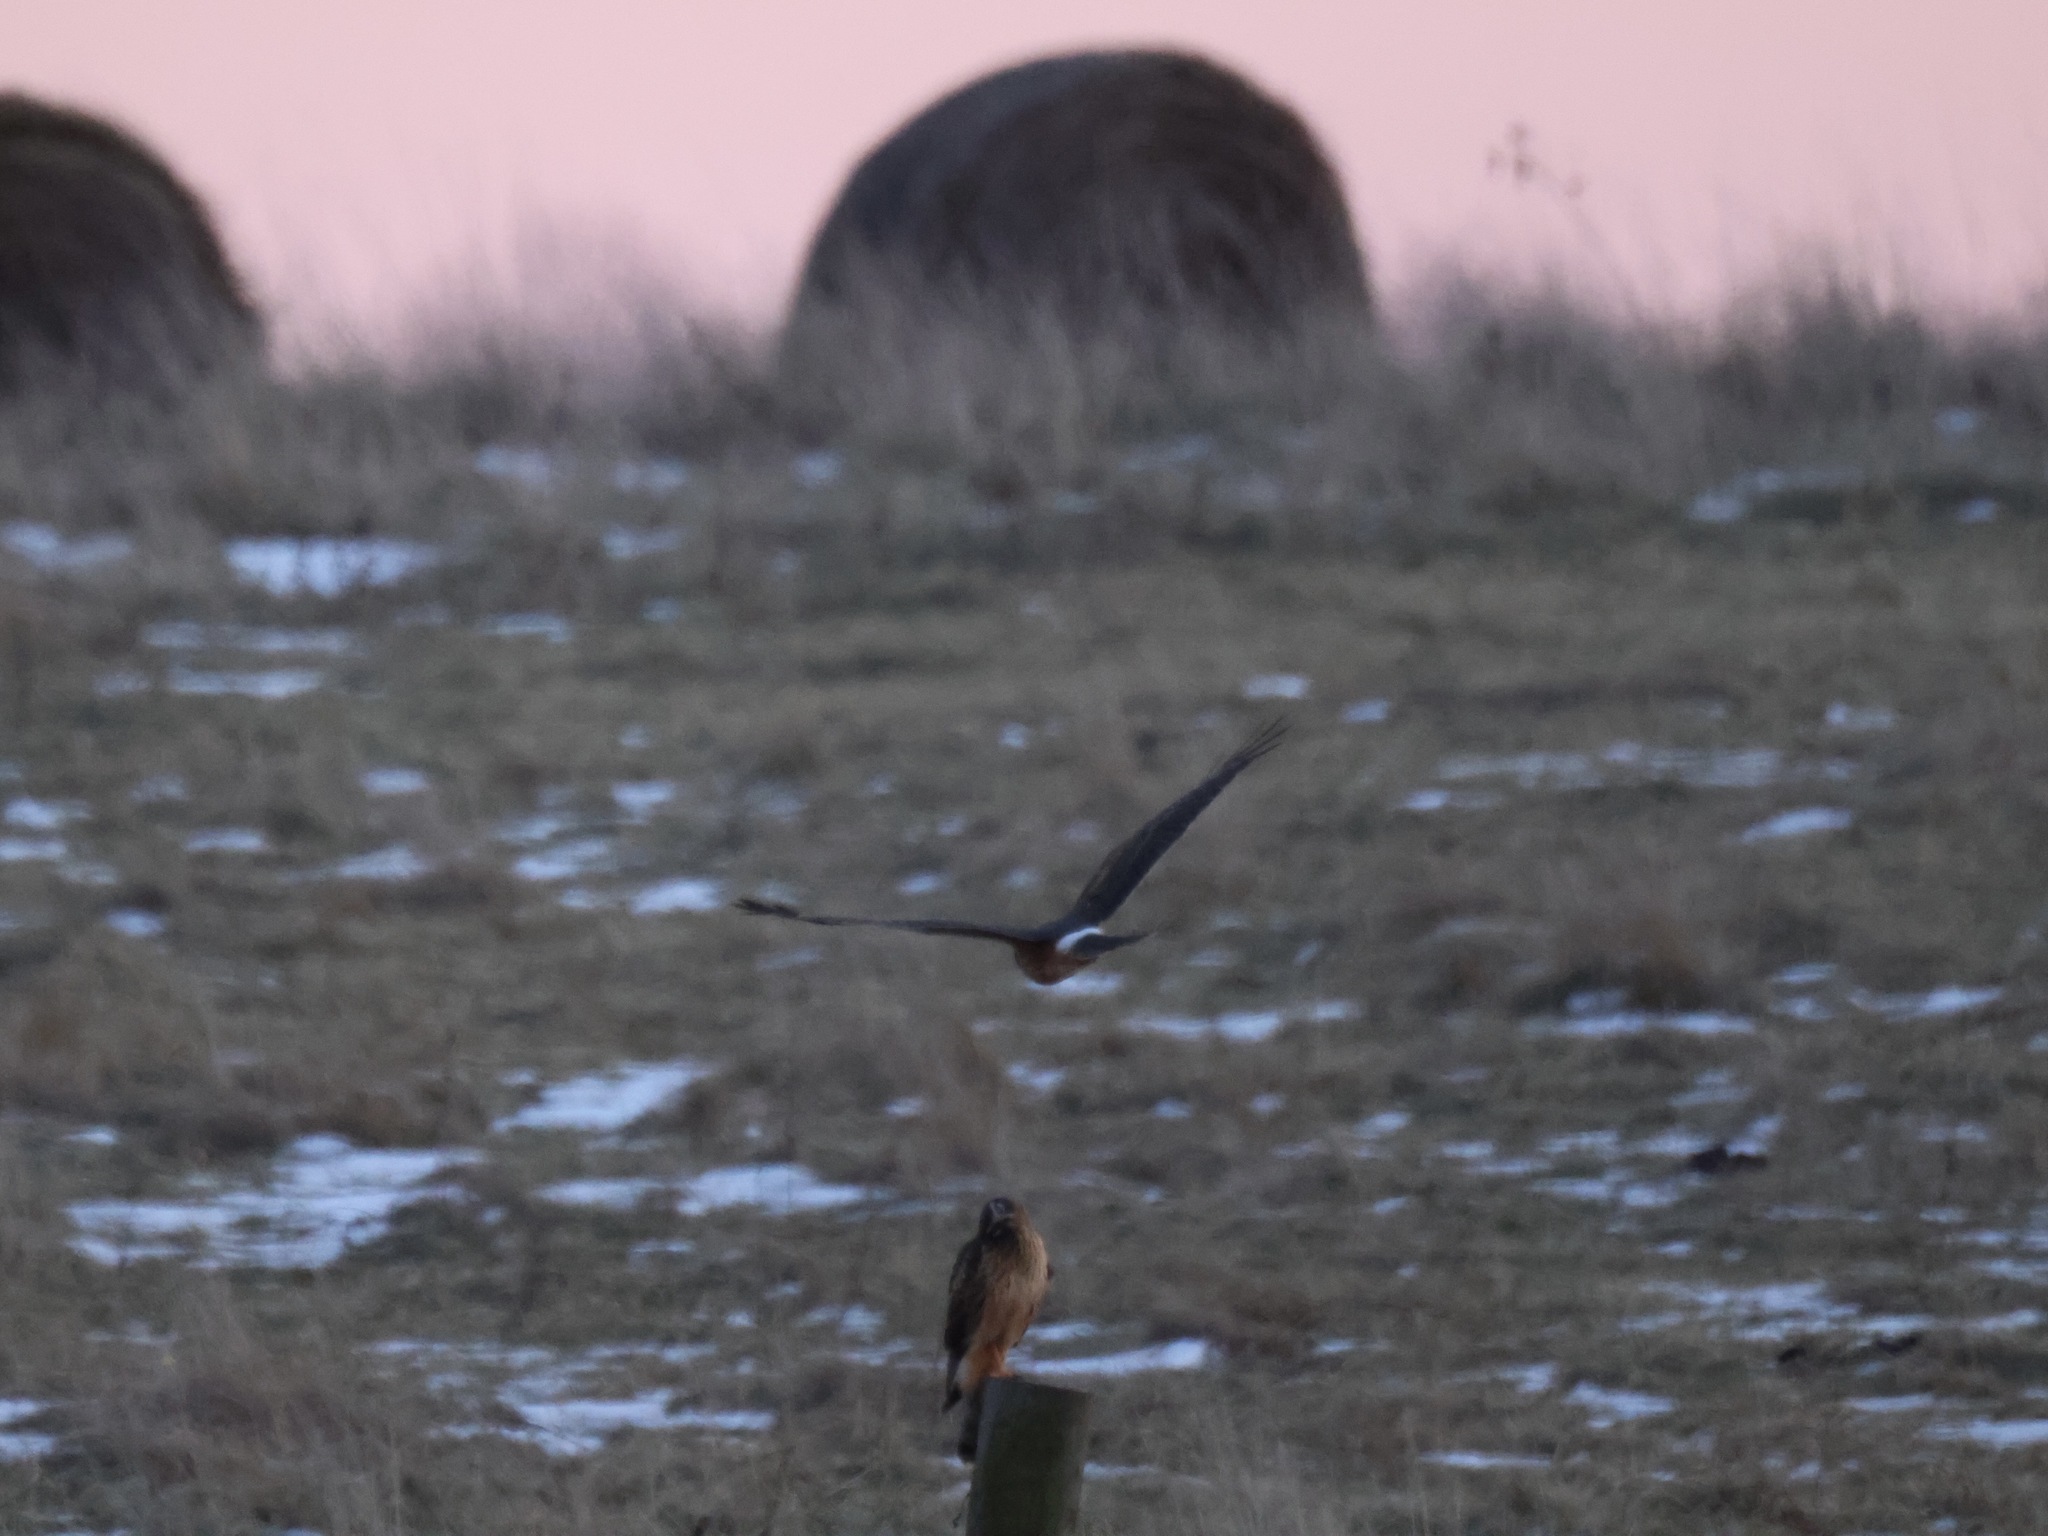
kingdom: Animalia
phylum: Chordata
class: Aves
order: Accipitriformes
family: Accipitridae
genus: Circus
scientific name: Circus cyaneus
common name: Hen harrier
